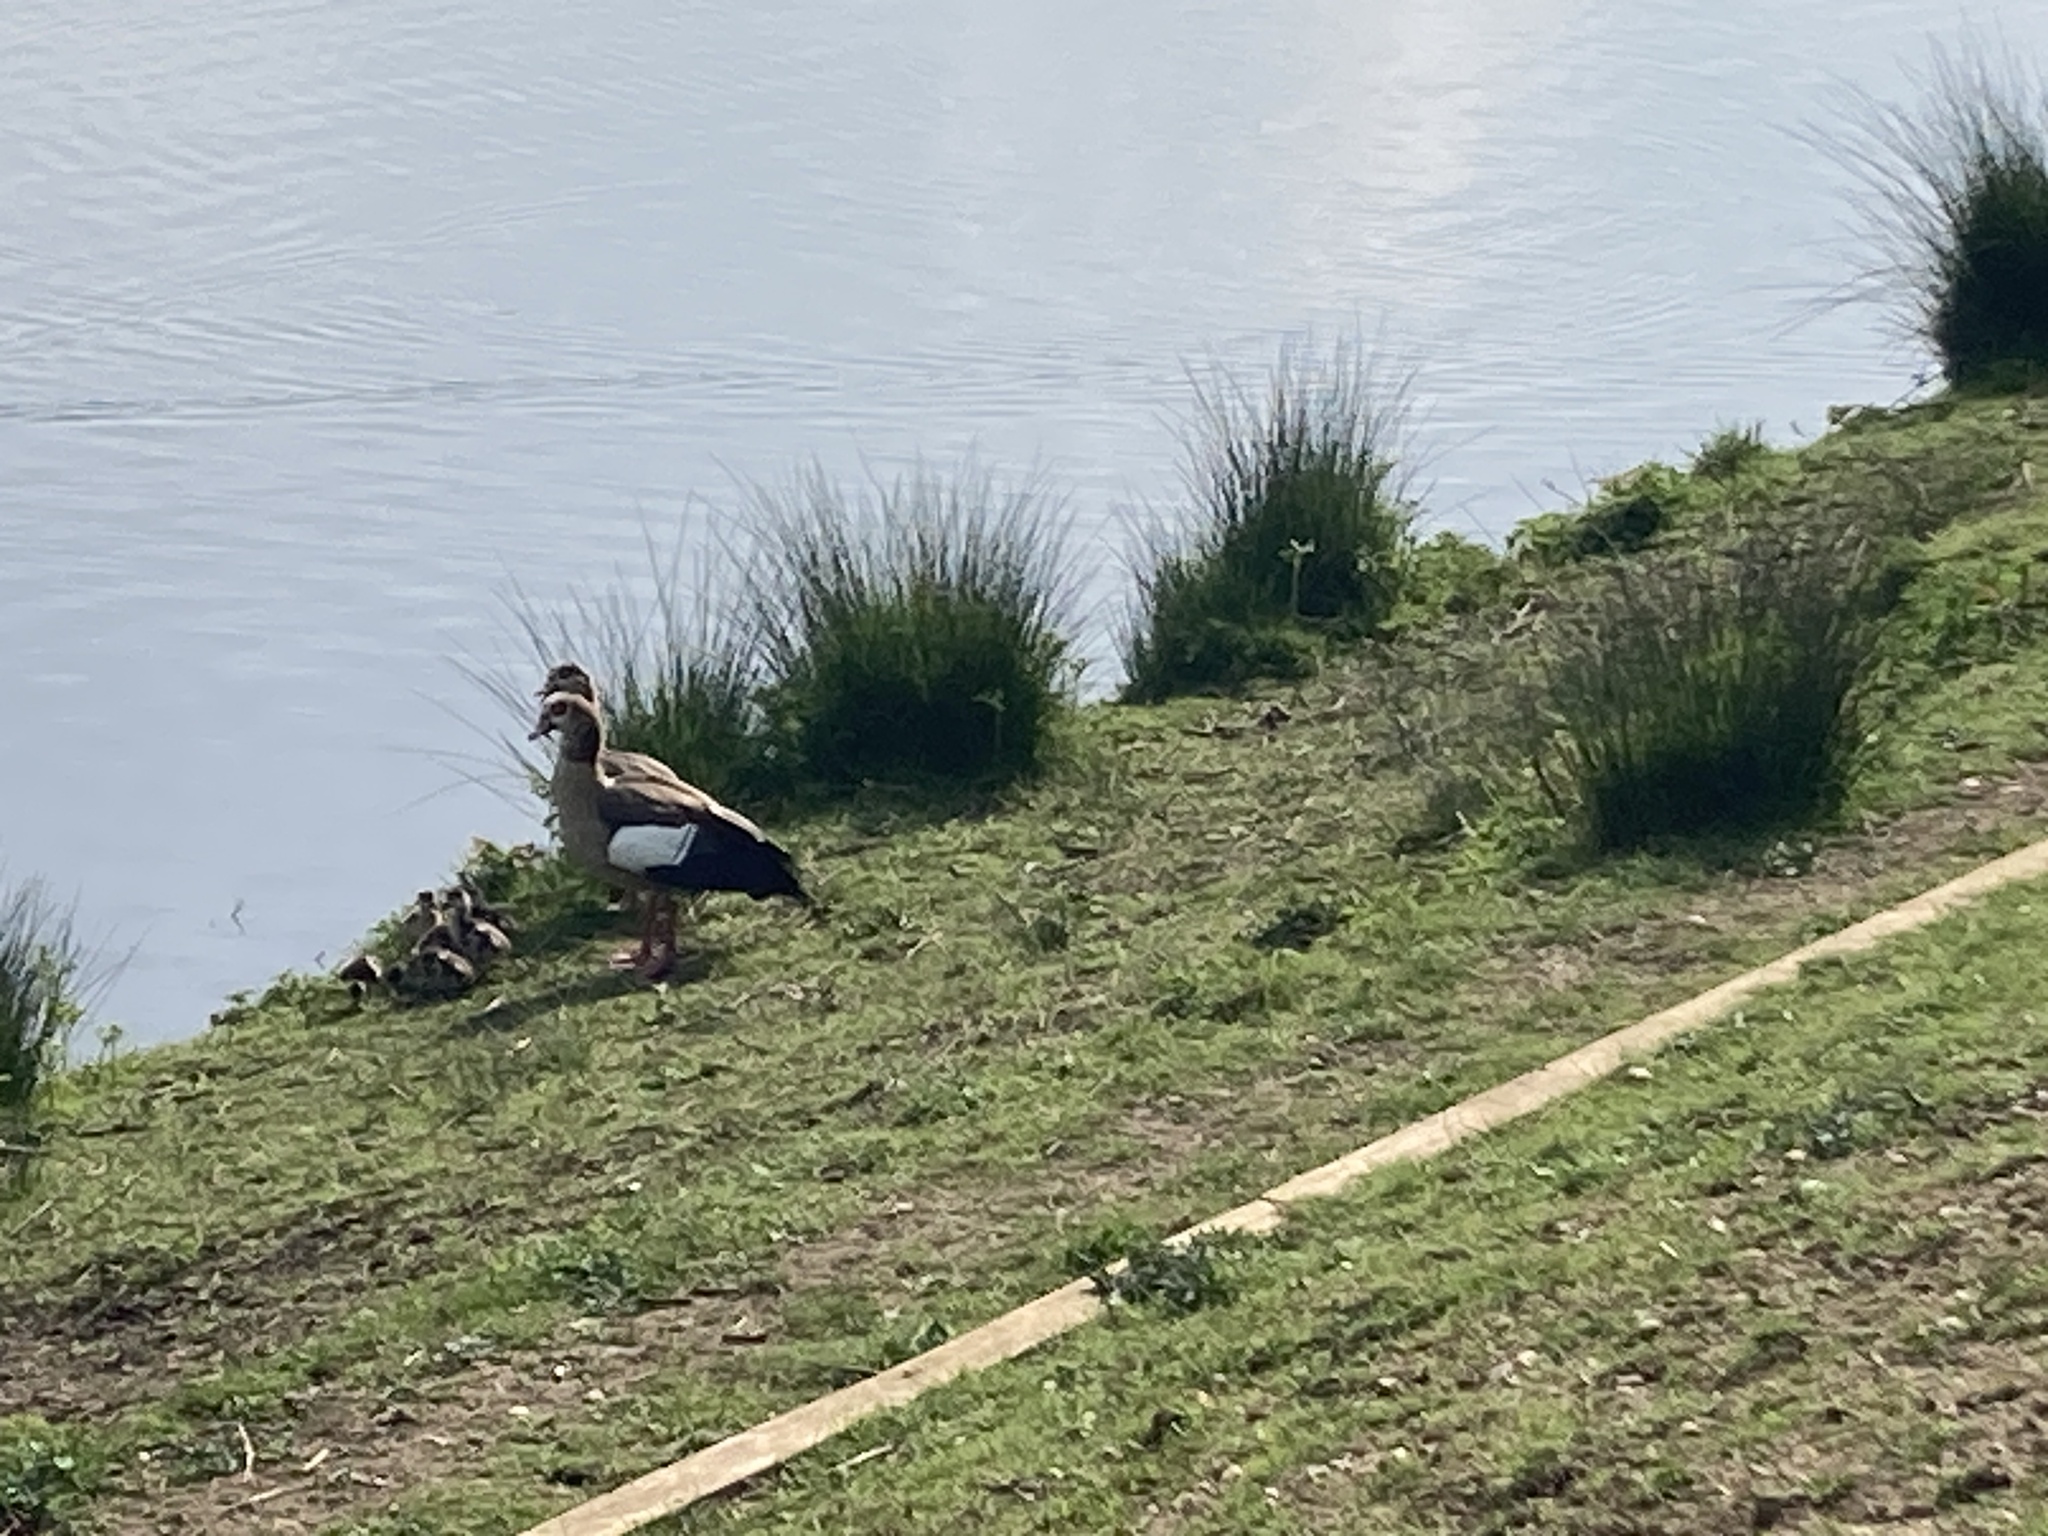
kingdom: Animalia
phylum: Chordata
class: Aves
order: Anseriformes
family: Anatidae
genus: Alopochen
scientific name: Alopochen aegyptiaca
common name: Egyptian goose
